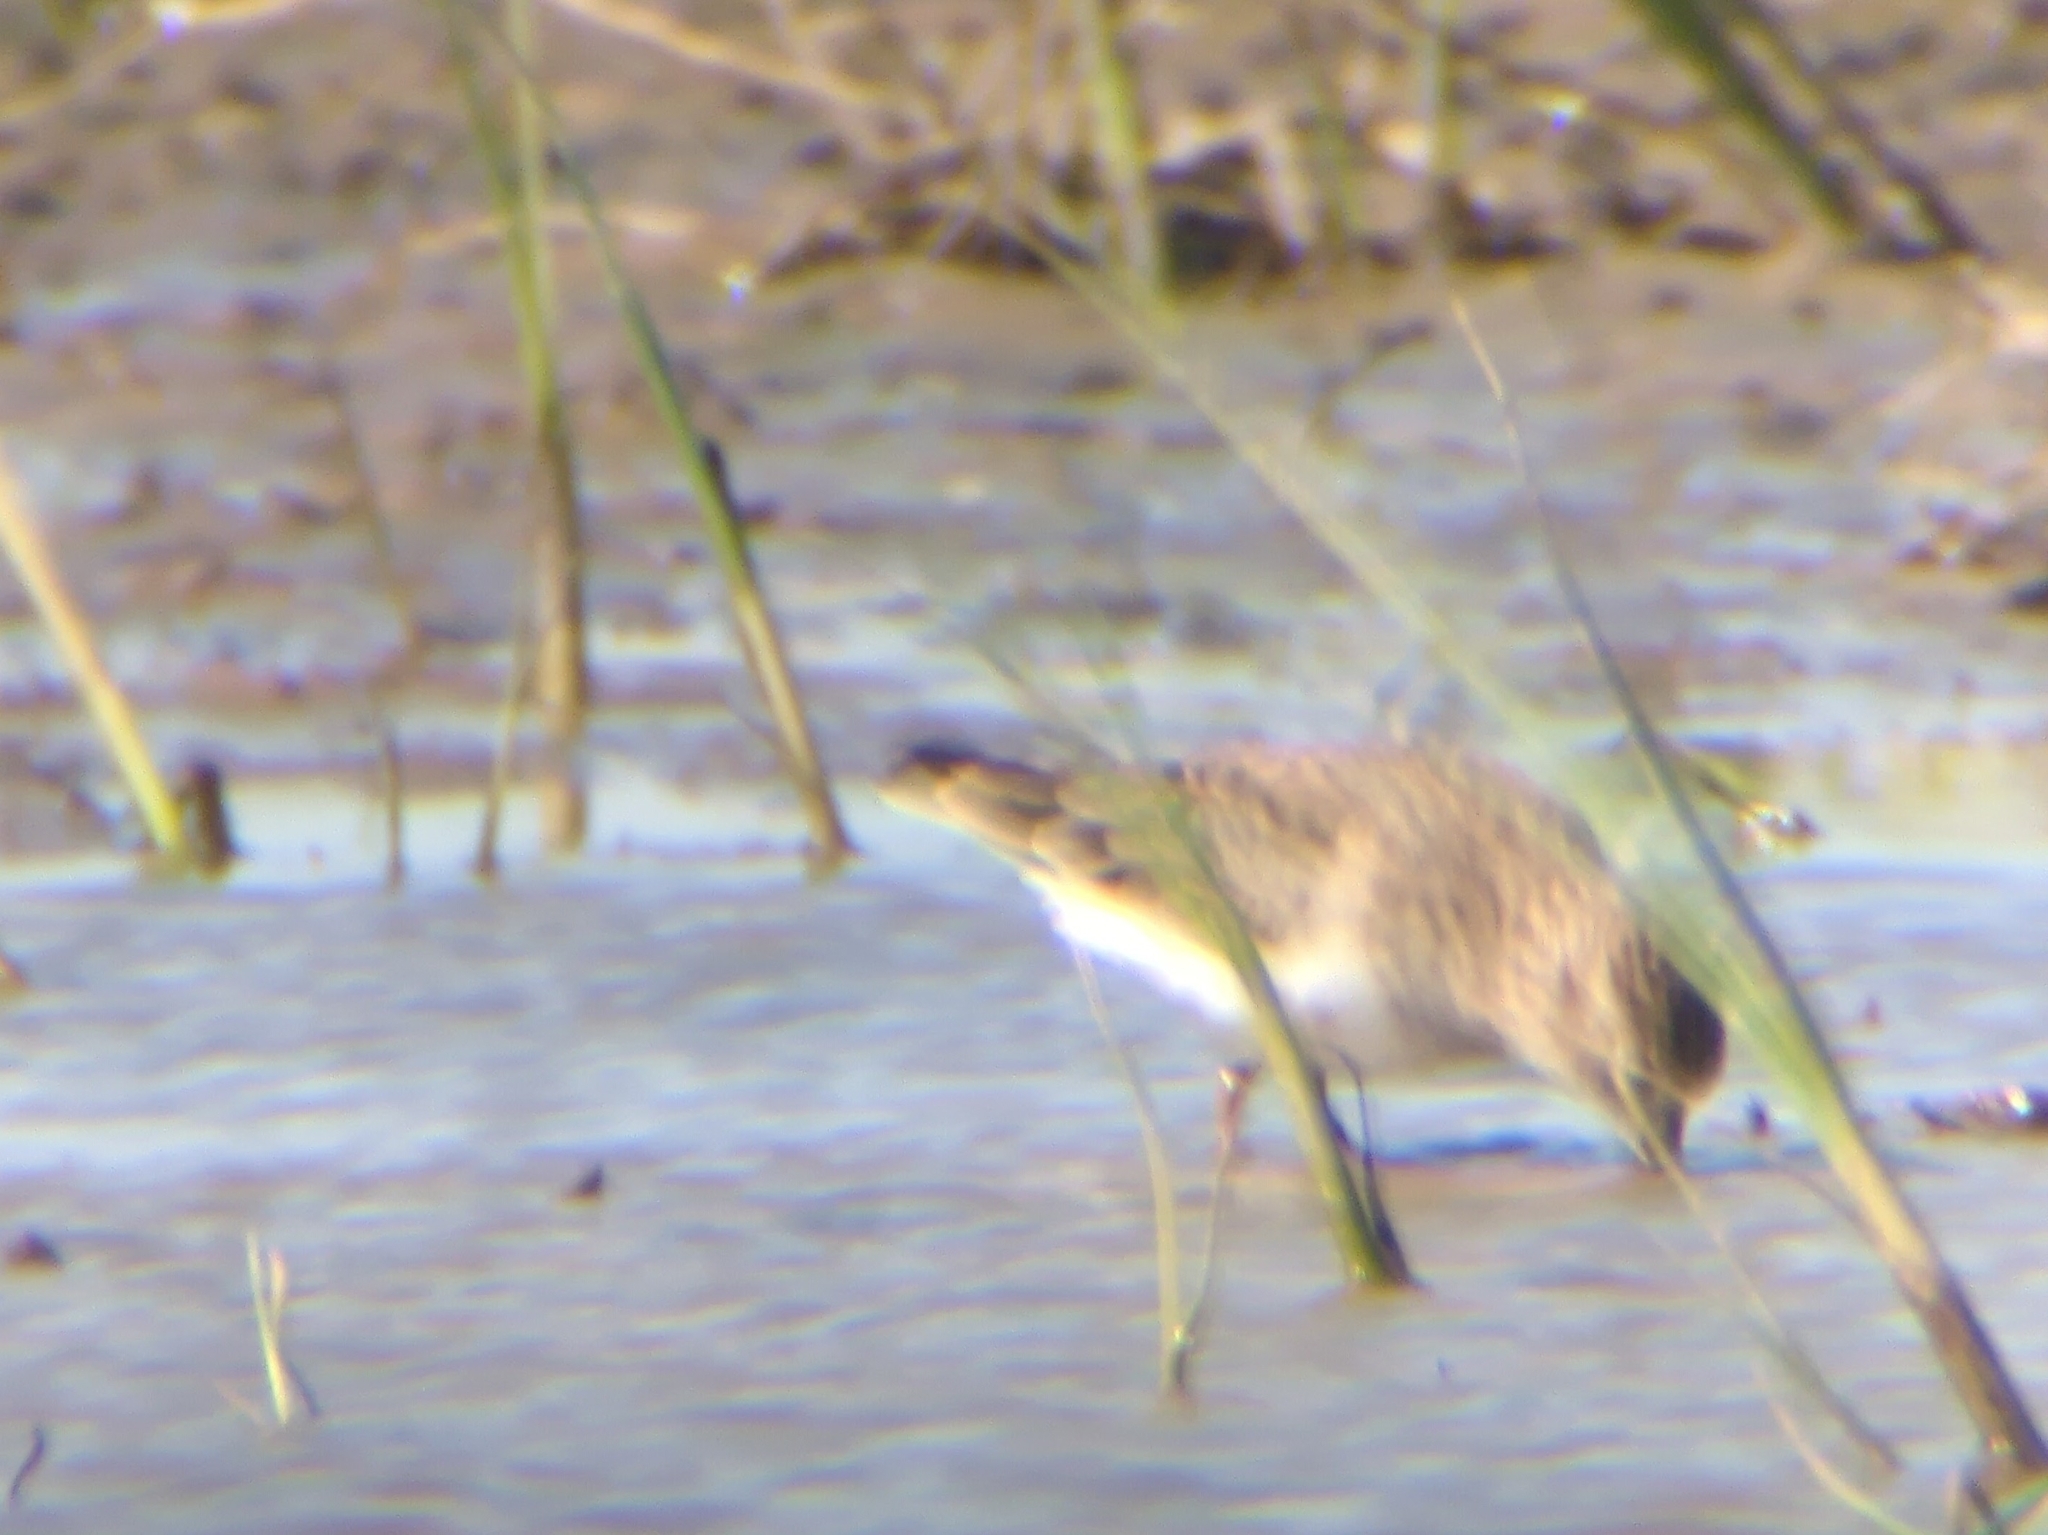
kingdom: Animalia
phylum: Chordata
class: Aves
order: Charadriiformes
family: Scolopacidae
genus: Calidris
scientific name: Calidris temminckii
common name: Temminck's stint
